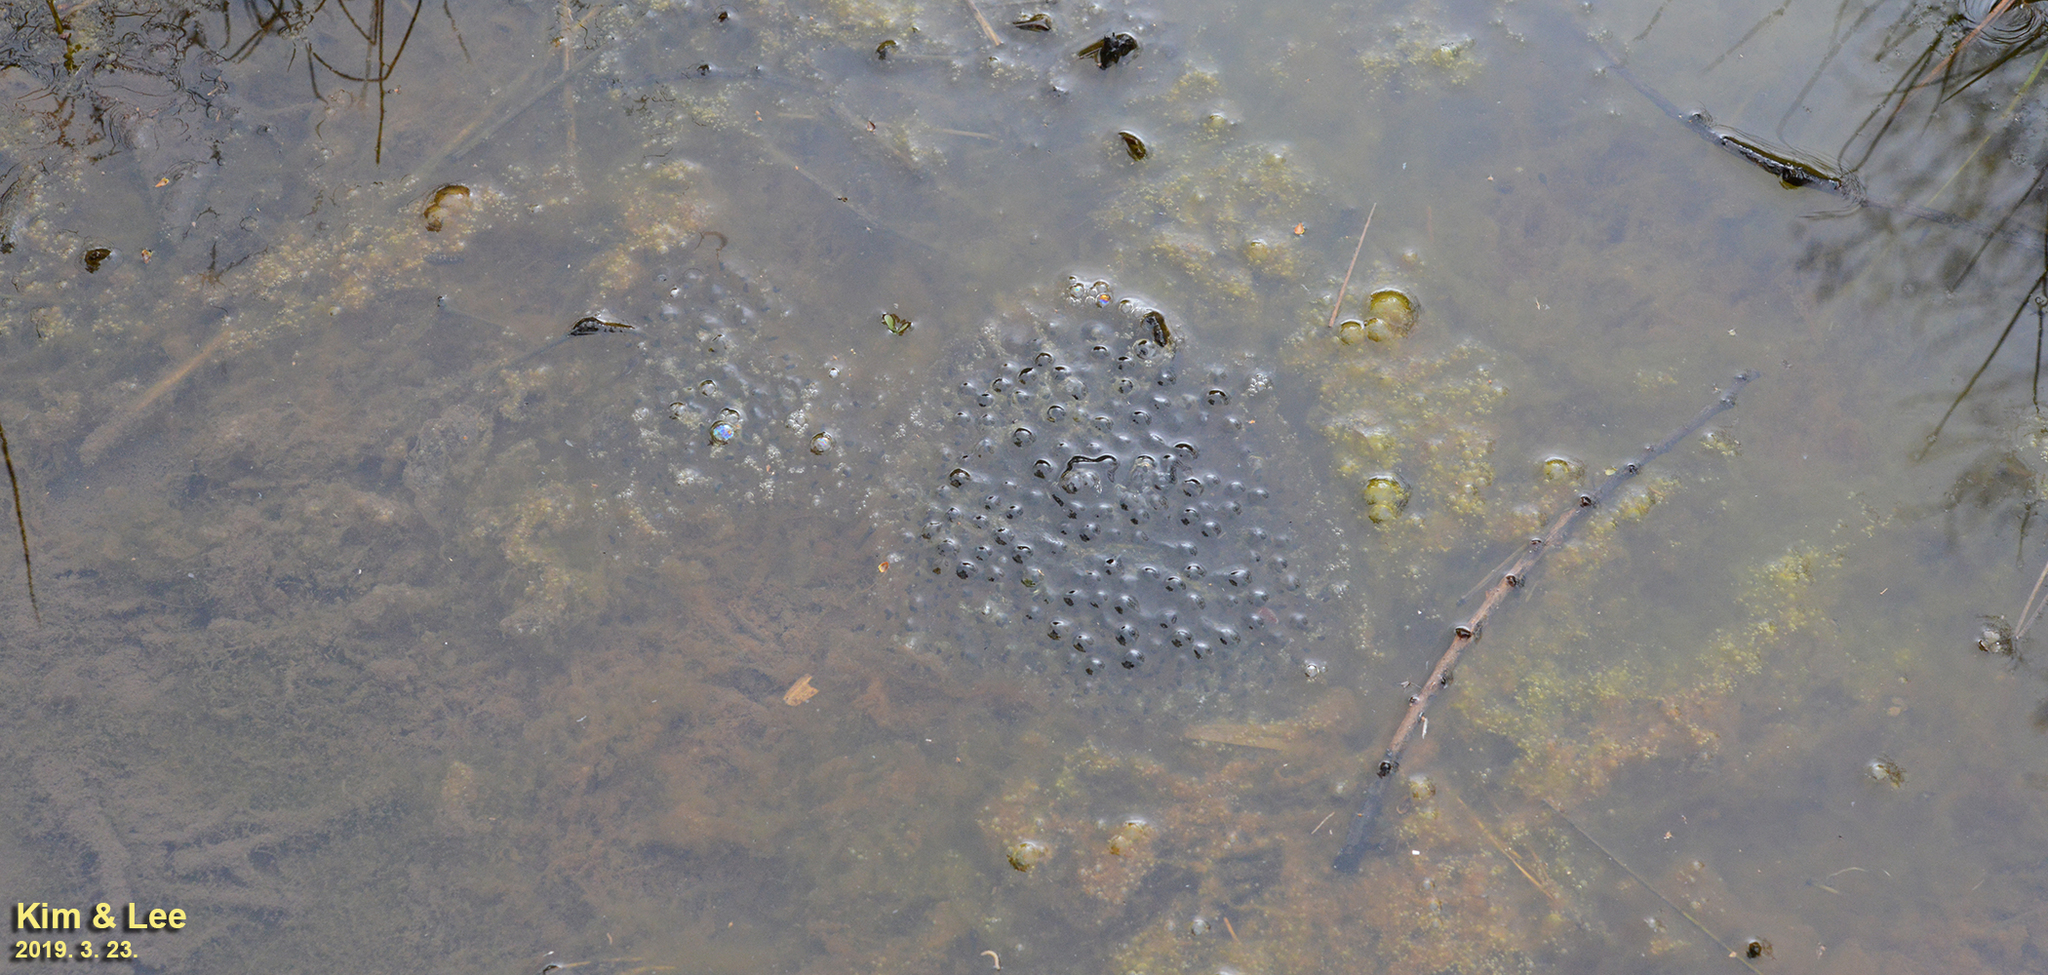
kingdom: Animalia
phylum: Chordata
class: Amphibia
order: Anura
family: Ranidae
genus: Rana
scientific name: Rana uenoi
